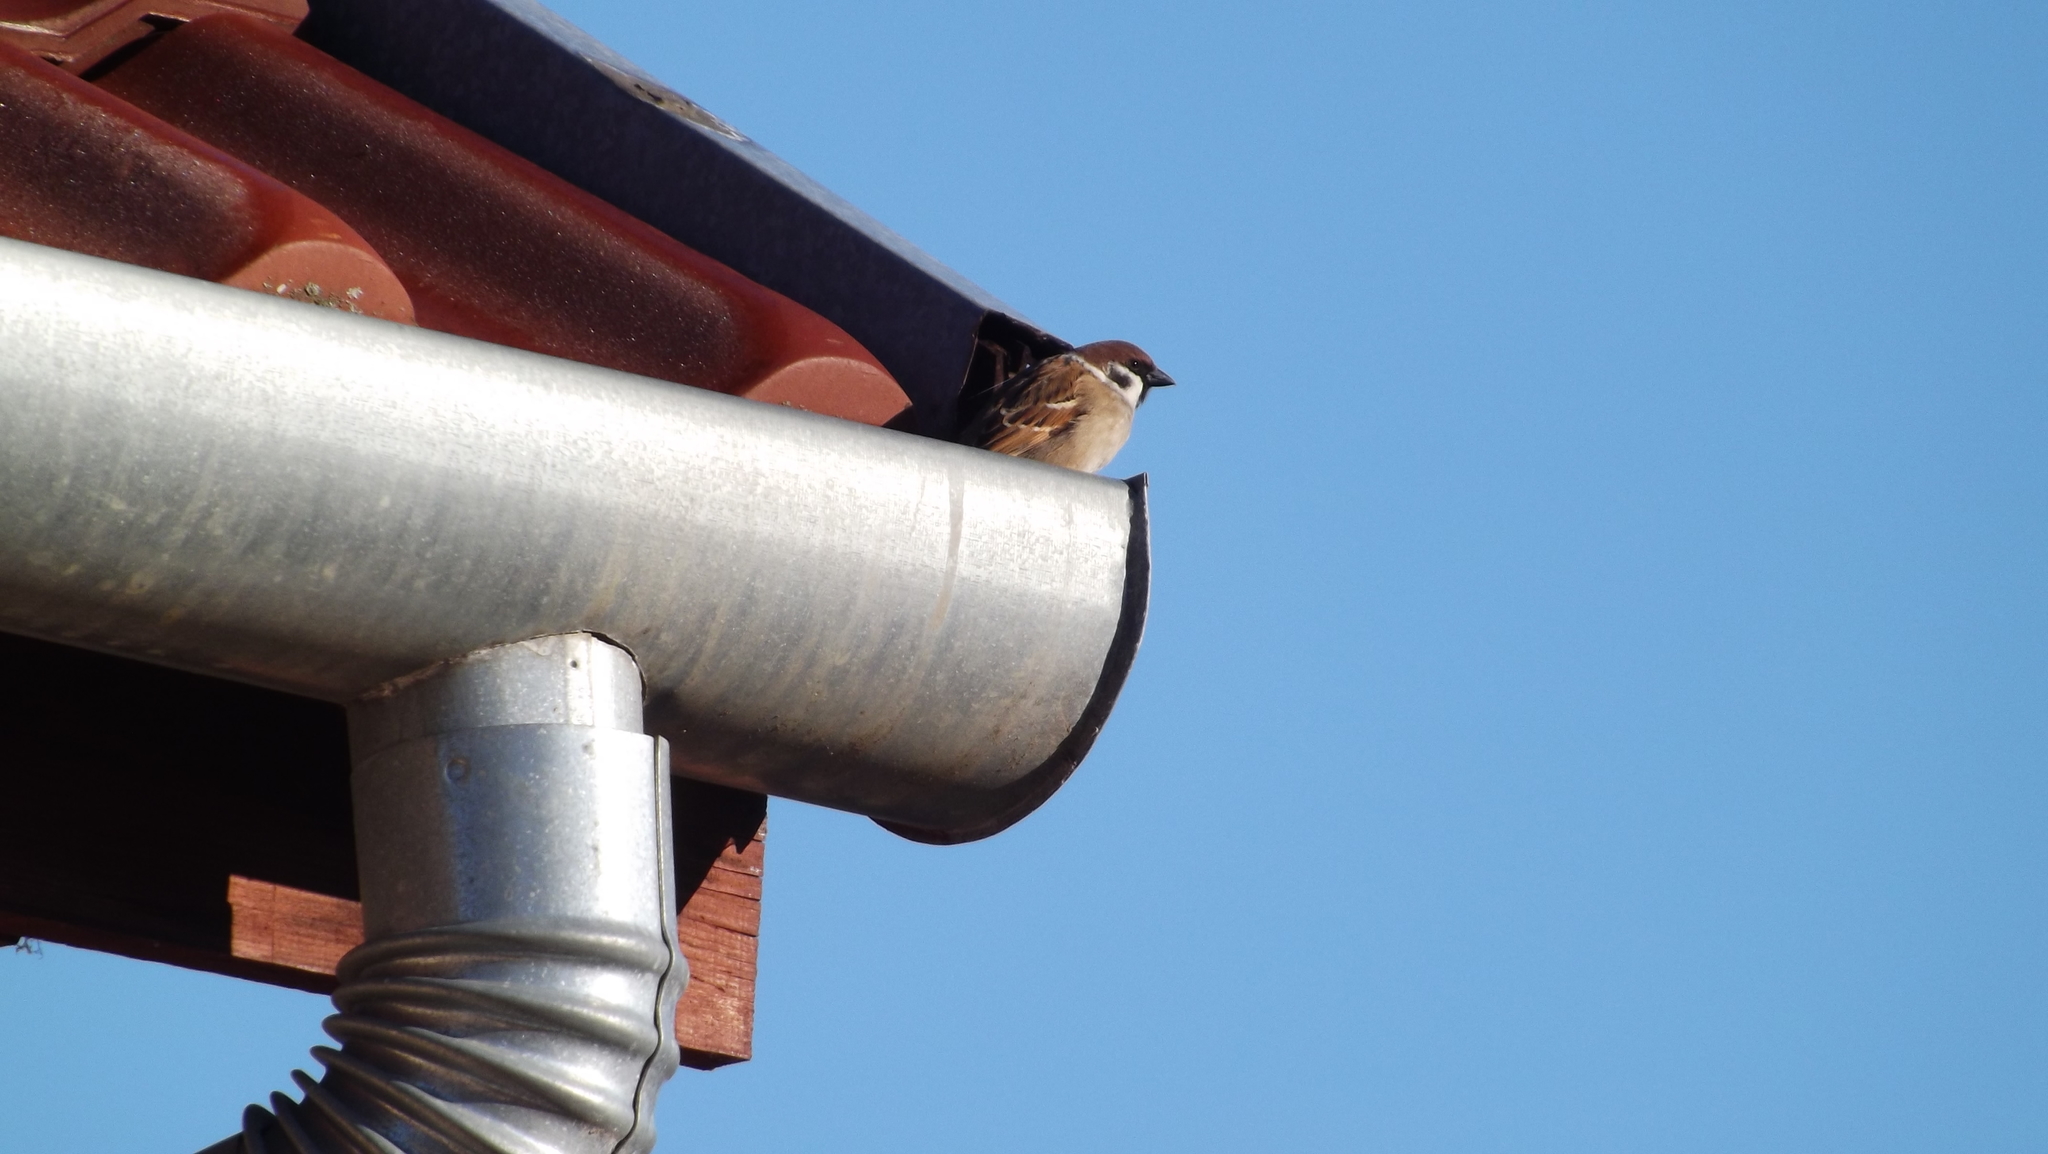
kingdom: Animalia
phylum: Chordata
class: Aves
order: Passeriformes
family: Passeridae
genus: Passer
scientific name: Passer montanus
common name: Eurasian tree sparrow
